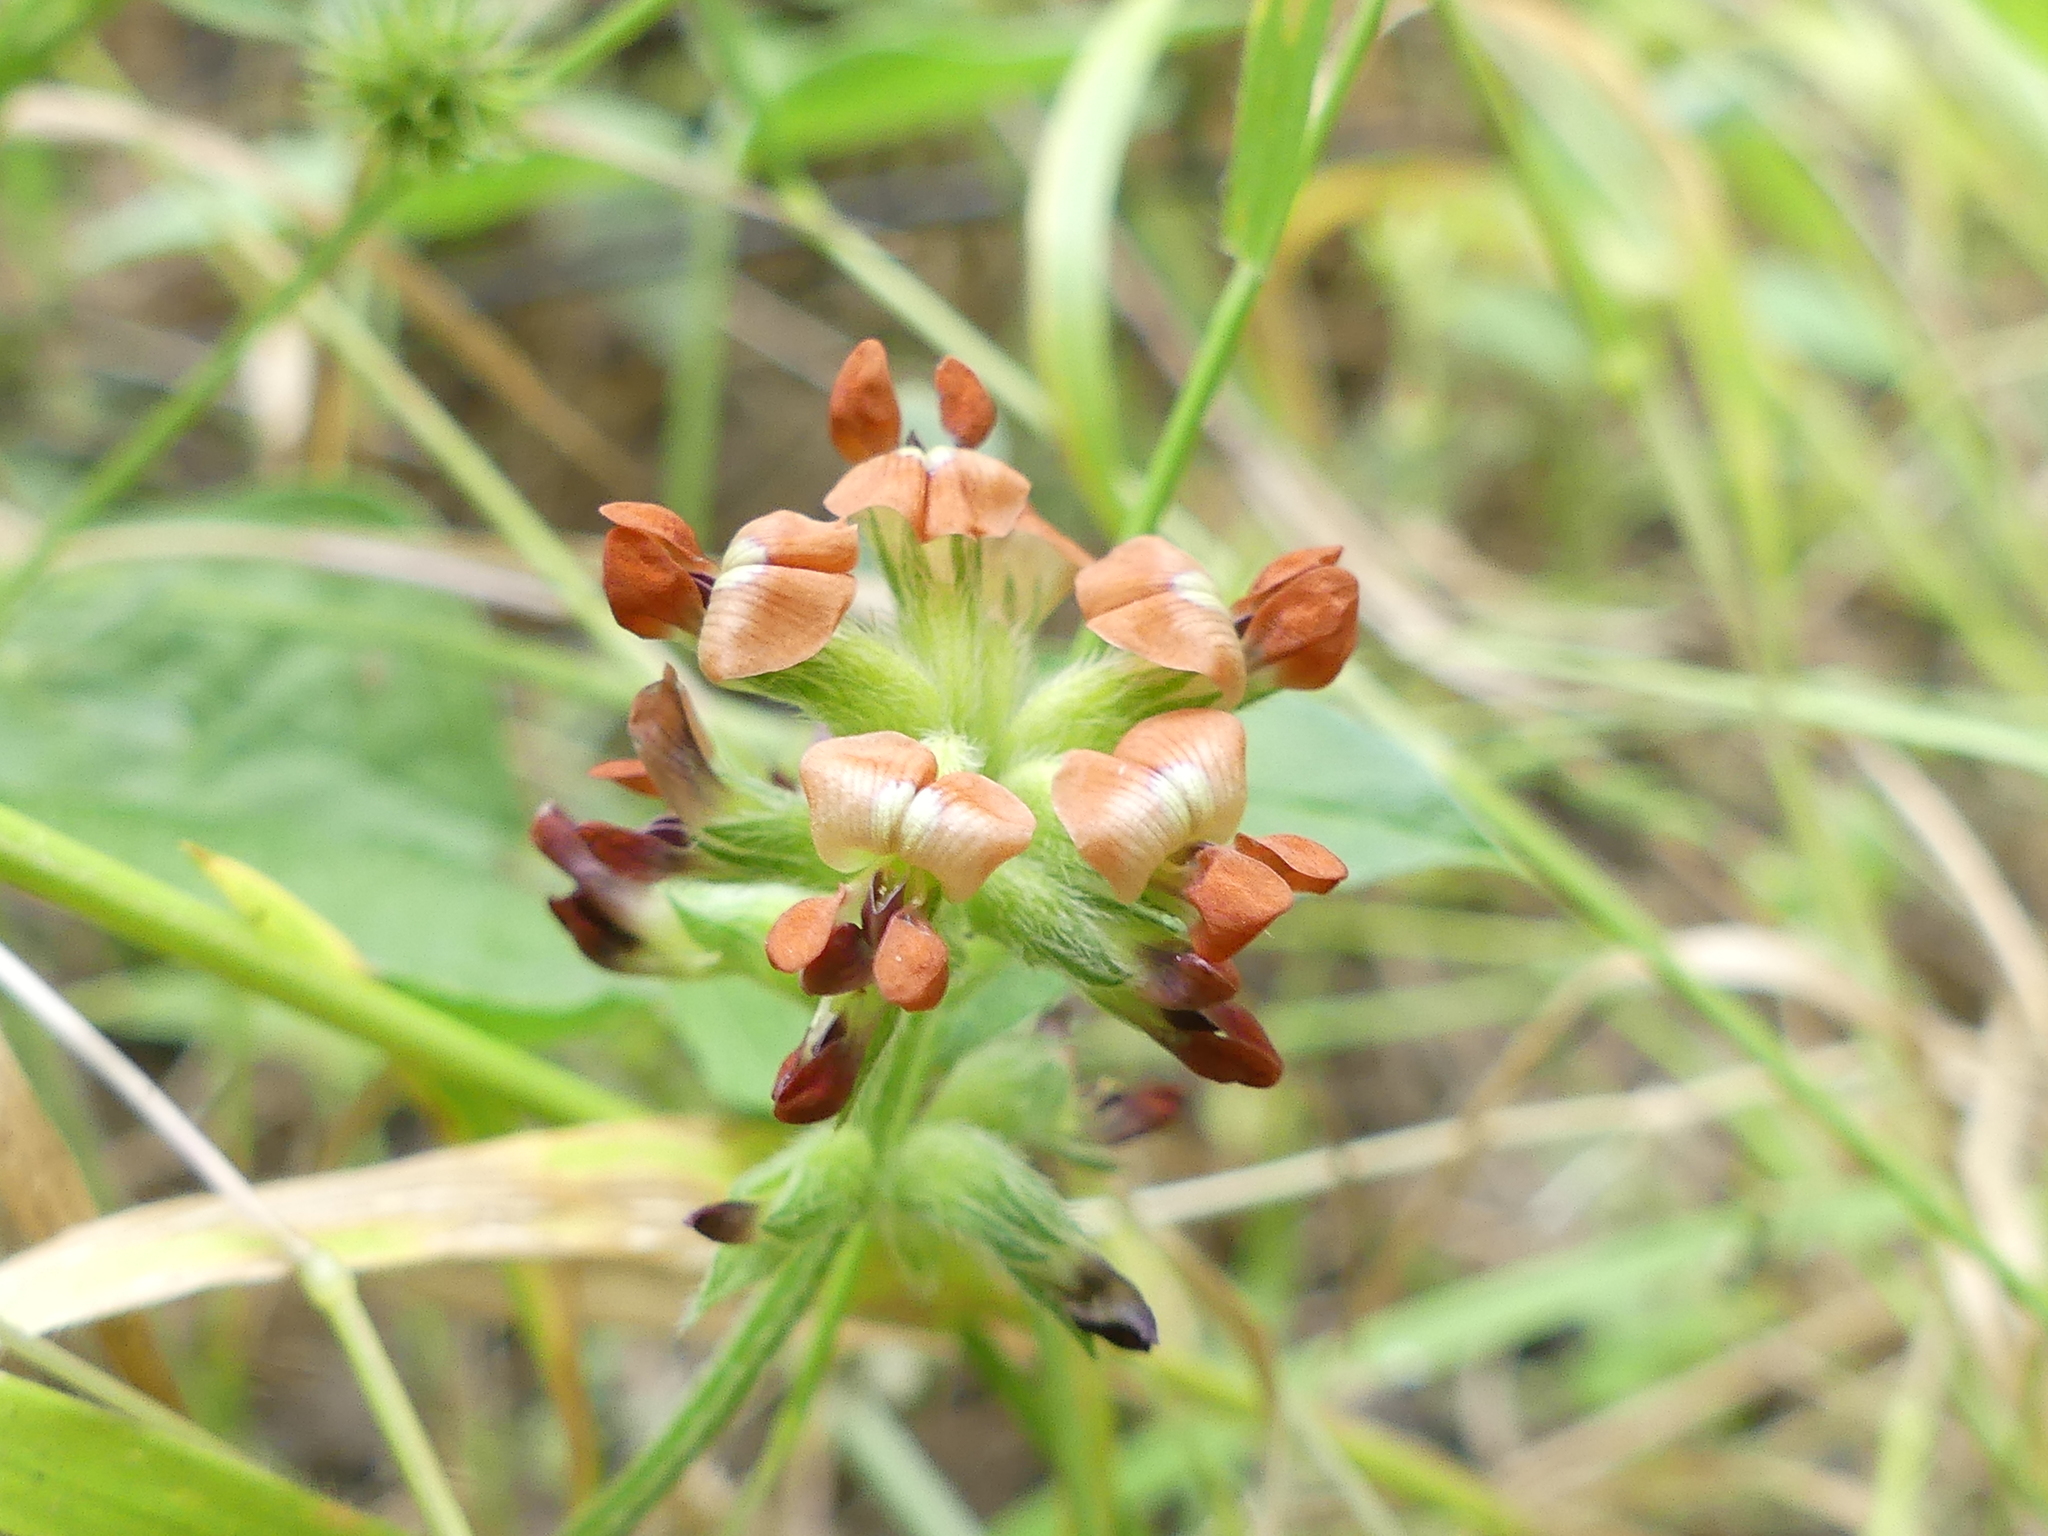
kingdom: Plantae
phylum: Tracheophyta
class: Magnoliopsida
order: Fabales
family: Fabaceae
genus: Pediomelum
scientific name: Pediomelum rhombifolium
